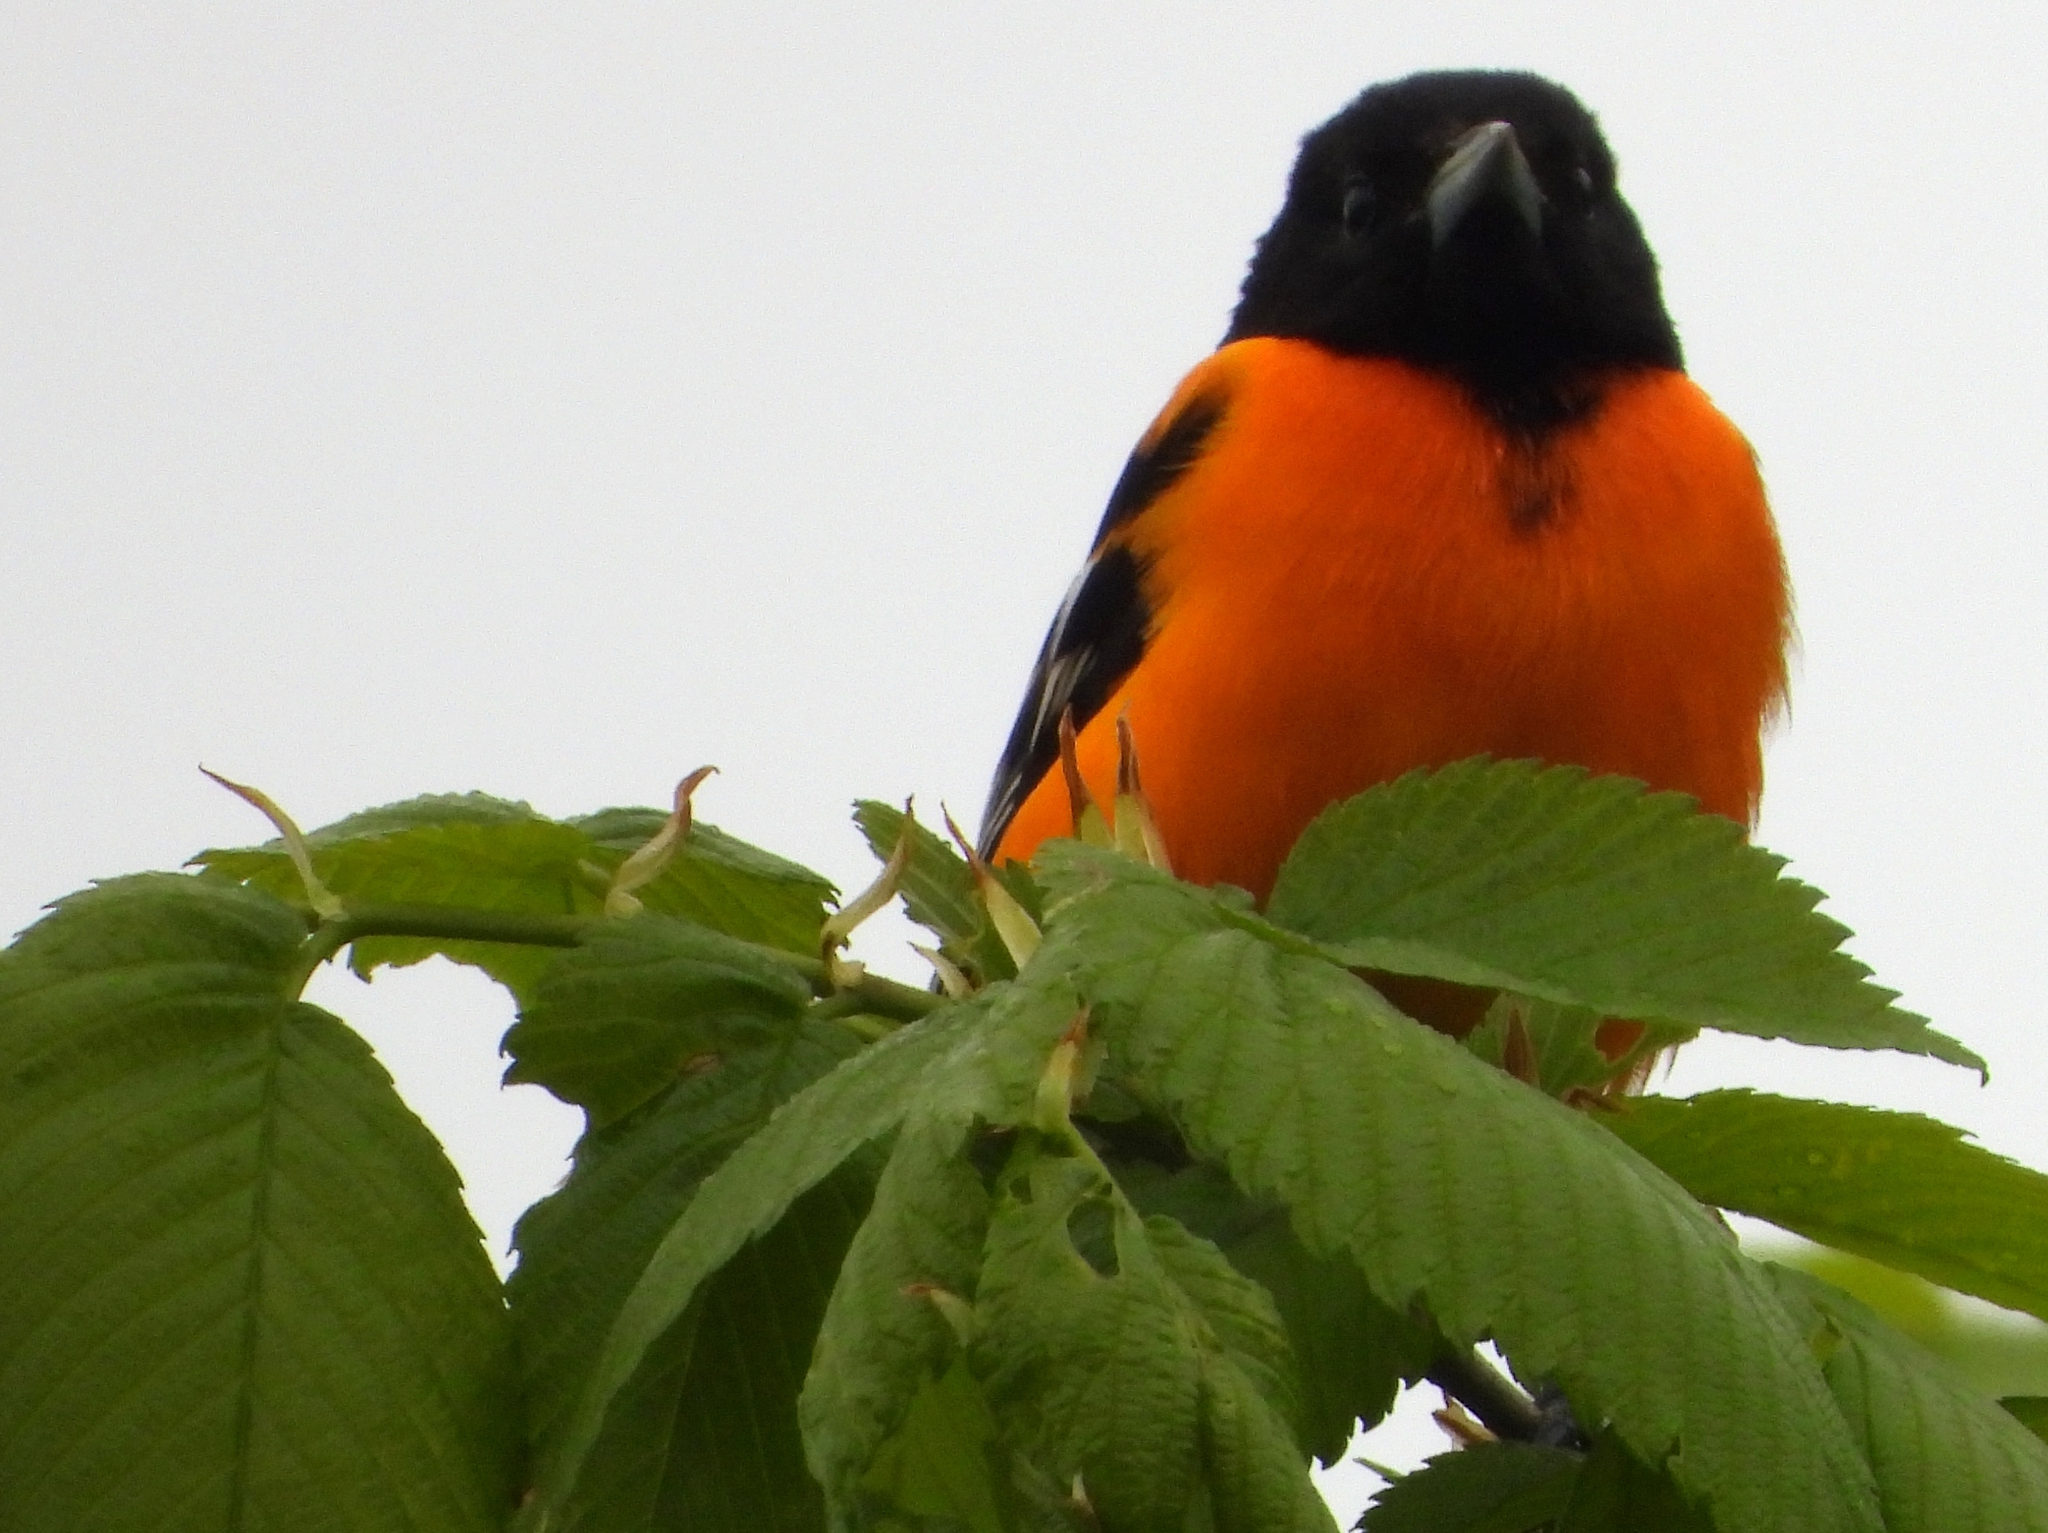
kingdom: Animalia
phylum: Chordata
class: Aves
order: Passeriformes
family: Icteridae
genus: Icterus
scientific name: Icterus galbula
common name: Baltimore oriole
